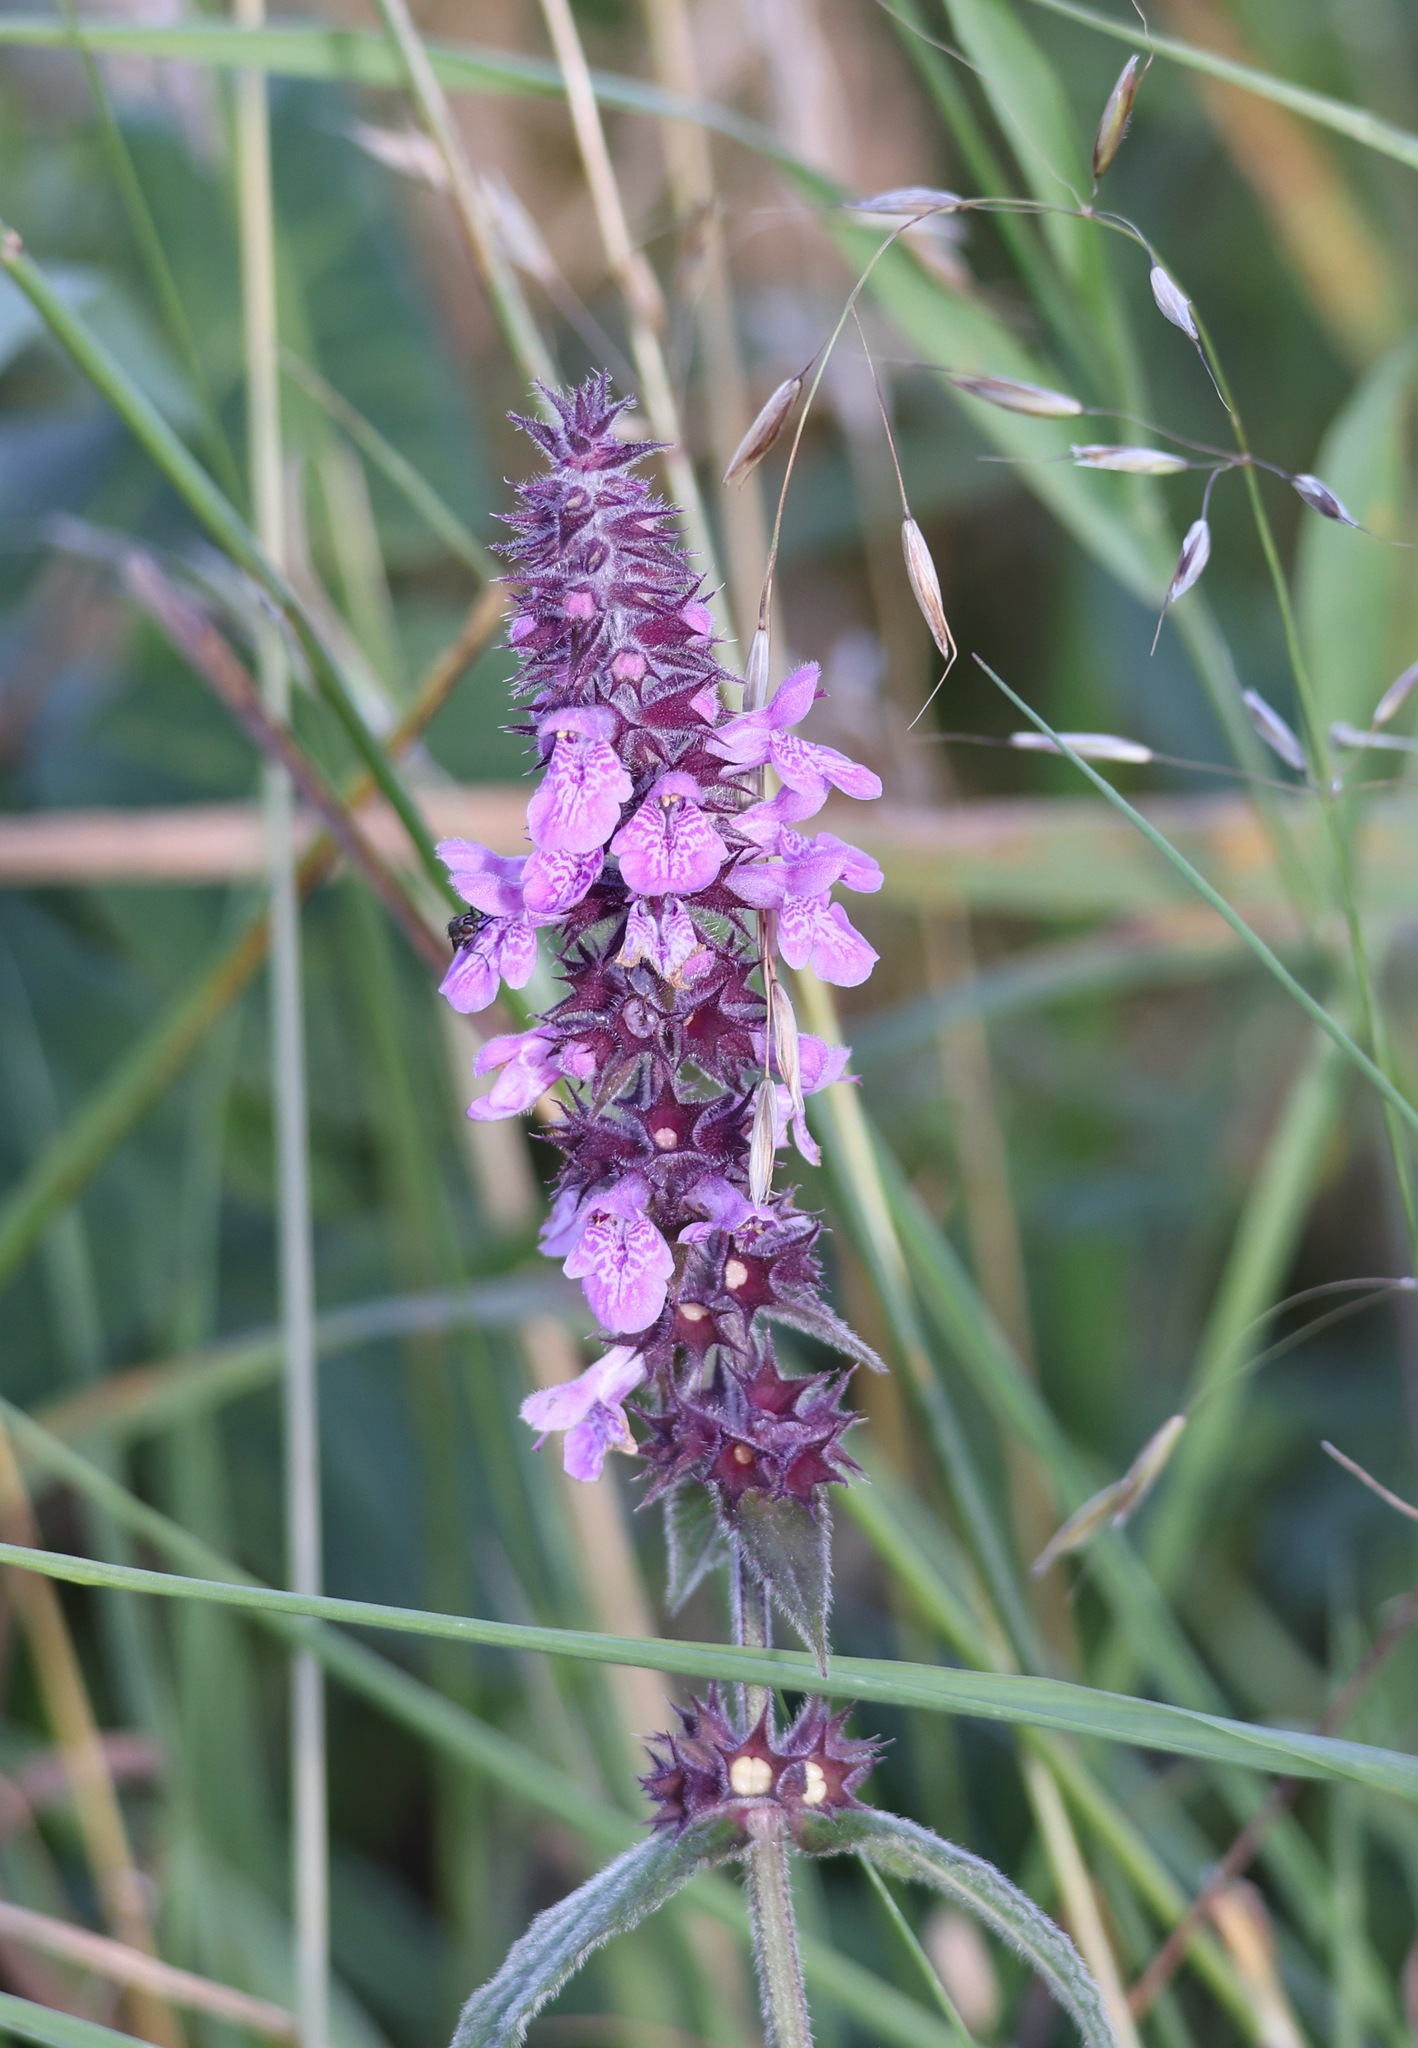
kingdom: Plantae
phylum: Tracheophyta
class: Magnoliopsida
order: Lamiales
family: Lamiaceae
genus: Stachys
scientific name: Stachys palustris
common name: Marsh woundwort
